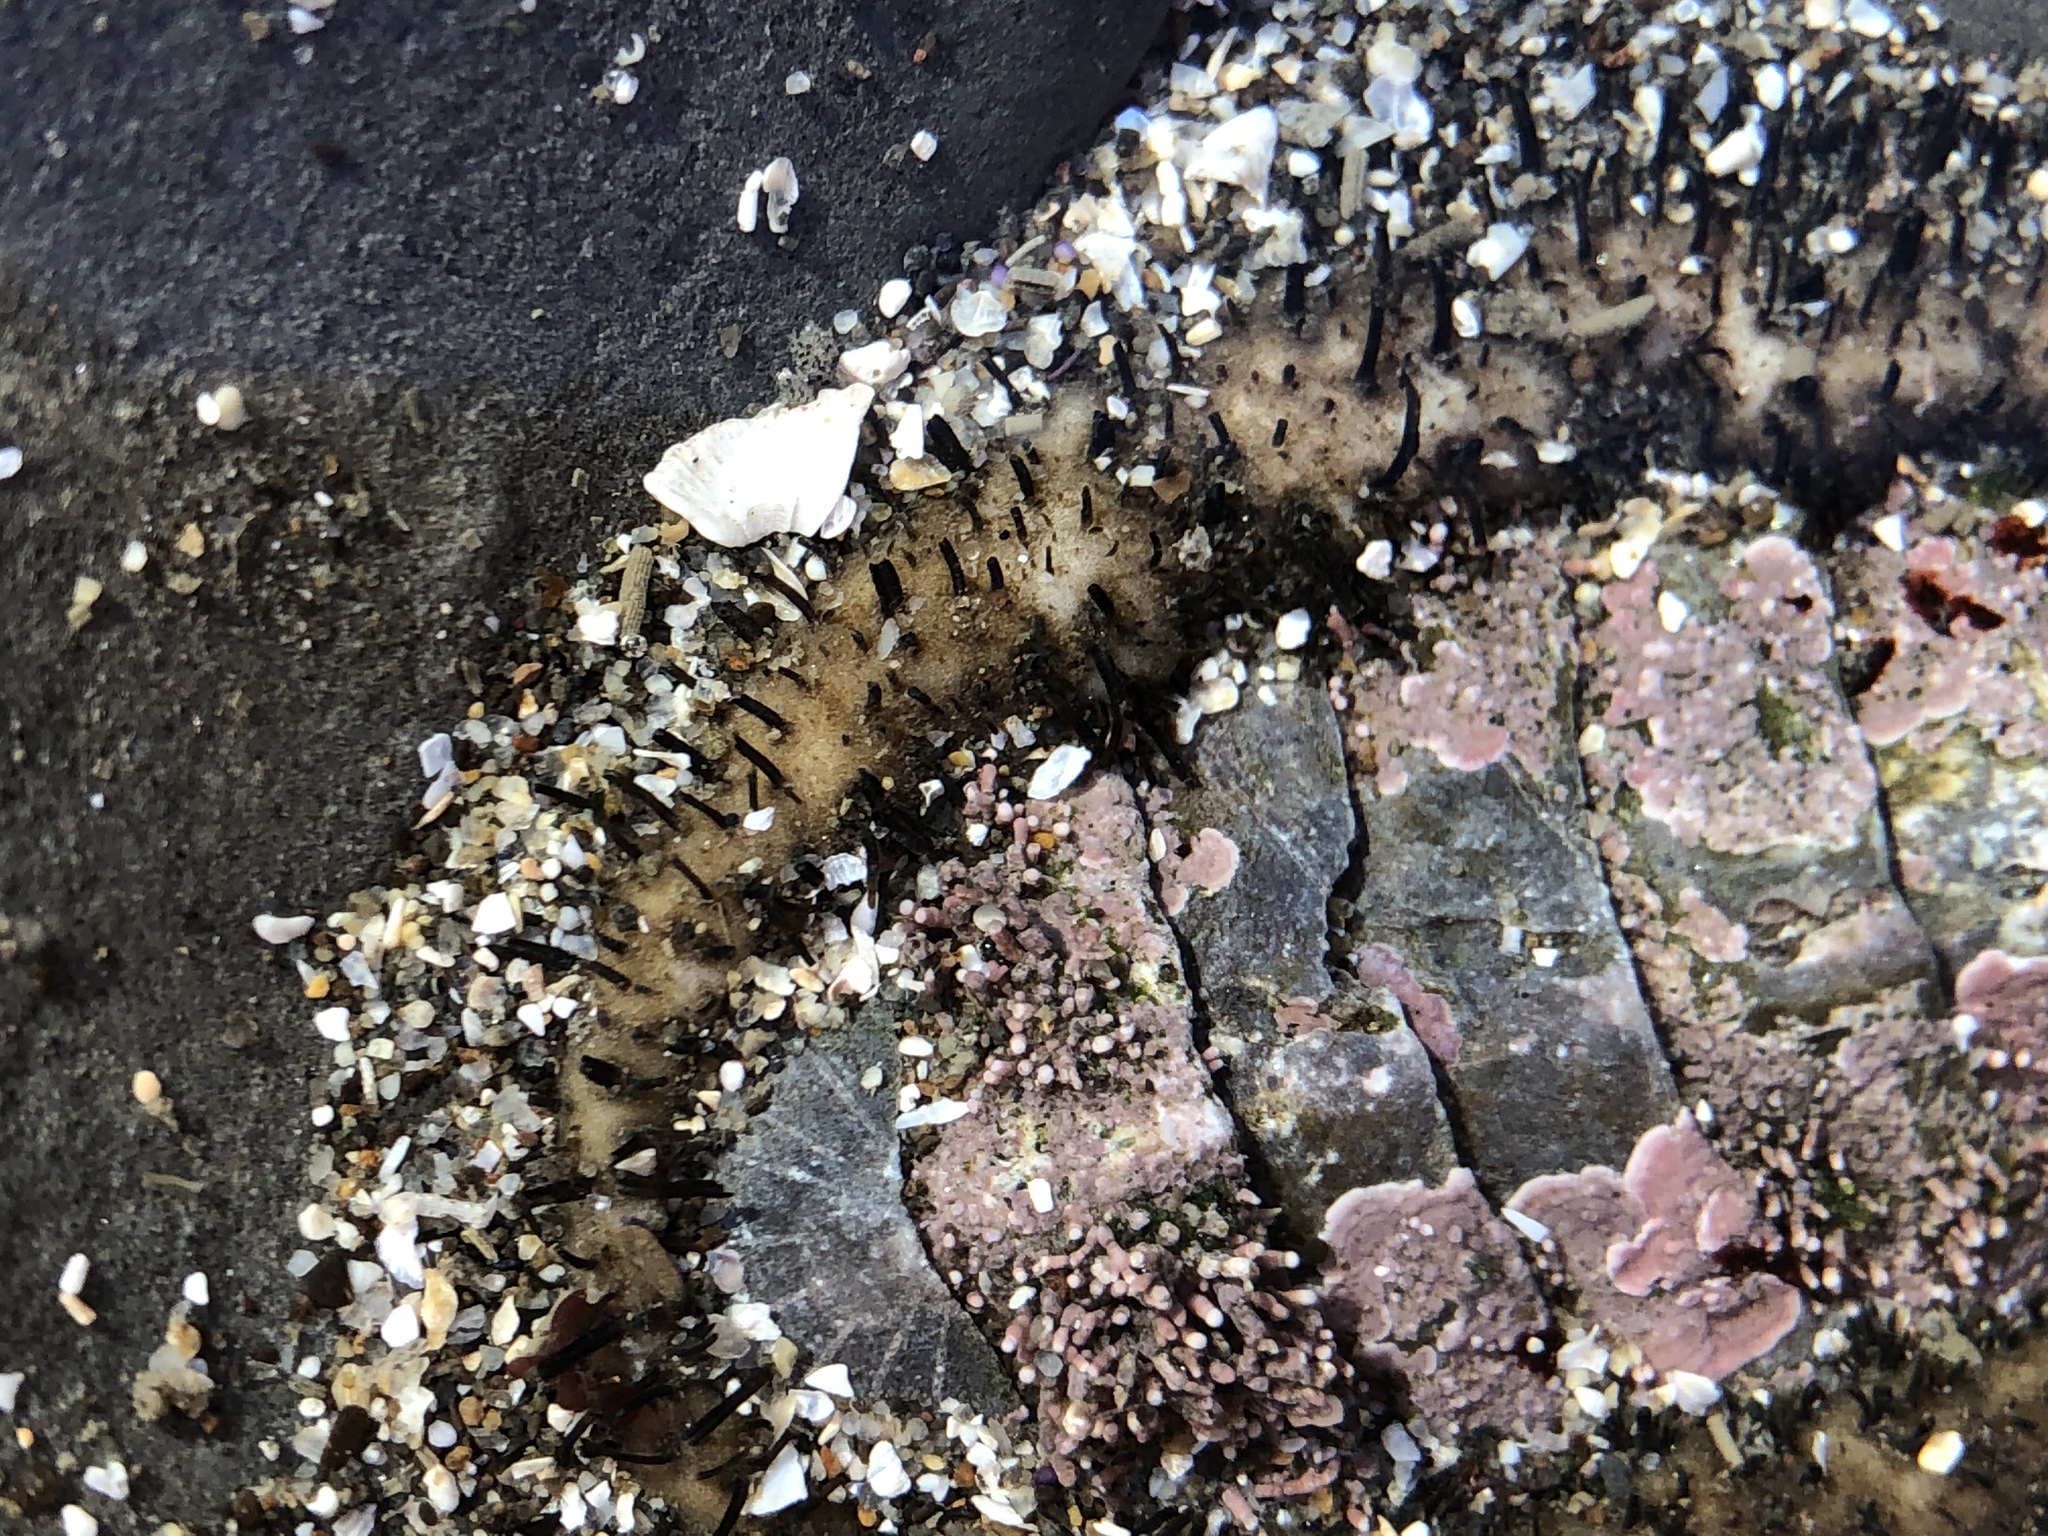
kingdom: Animalia
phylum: Mollusca
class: Polyplacophora
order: Chitonida
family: Mopaliidae
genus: Mopalia
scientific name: Mopalia muscosa
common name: Mossy chiton
